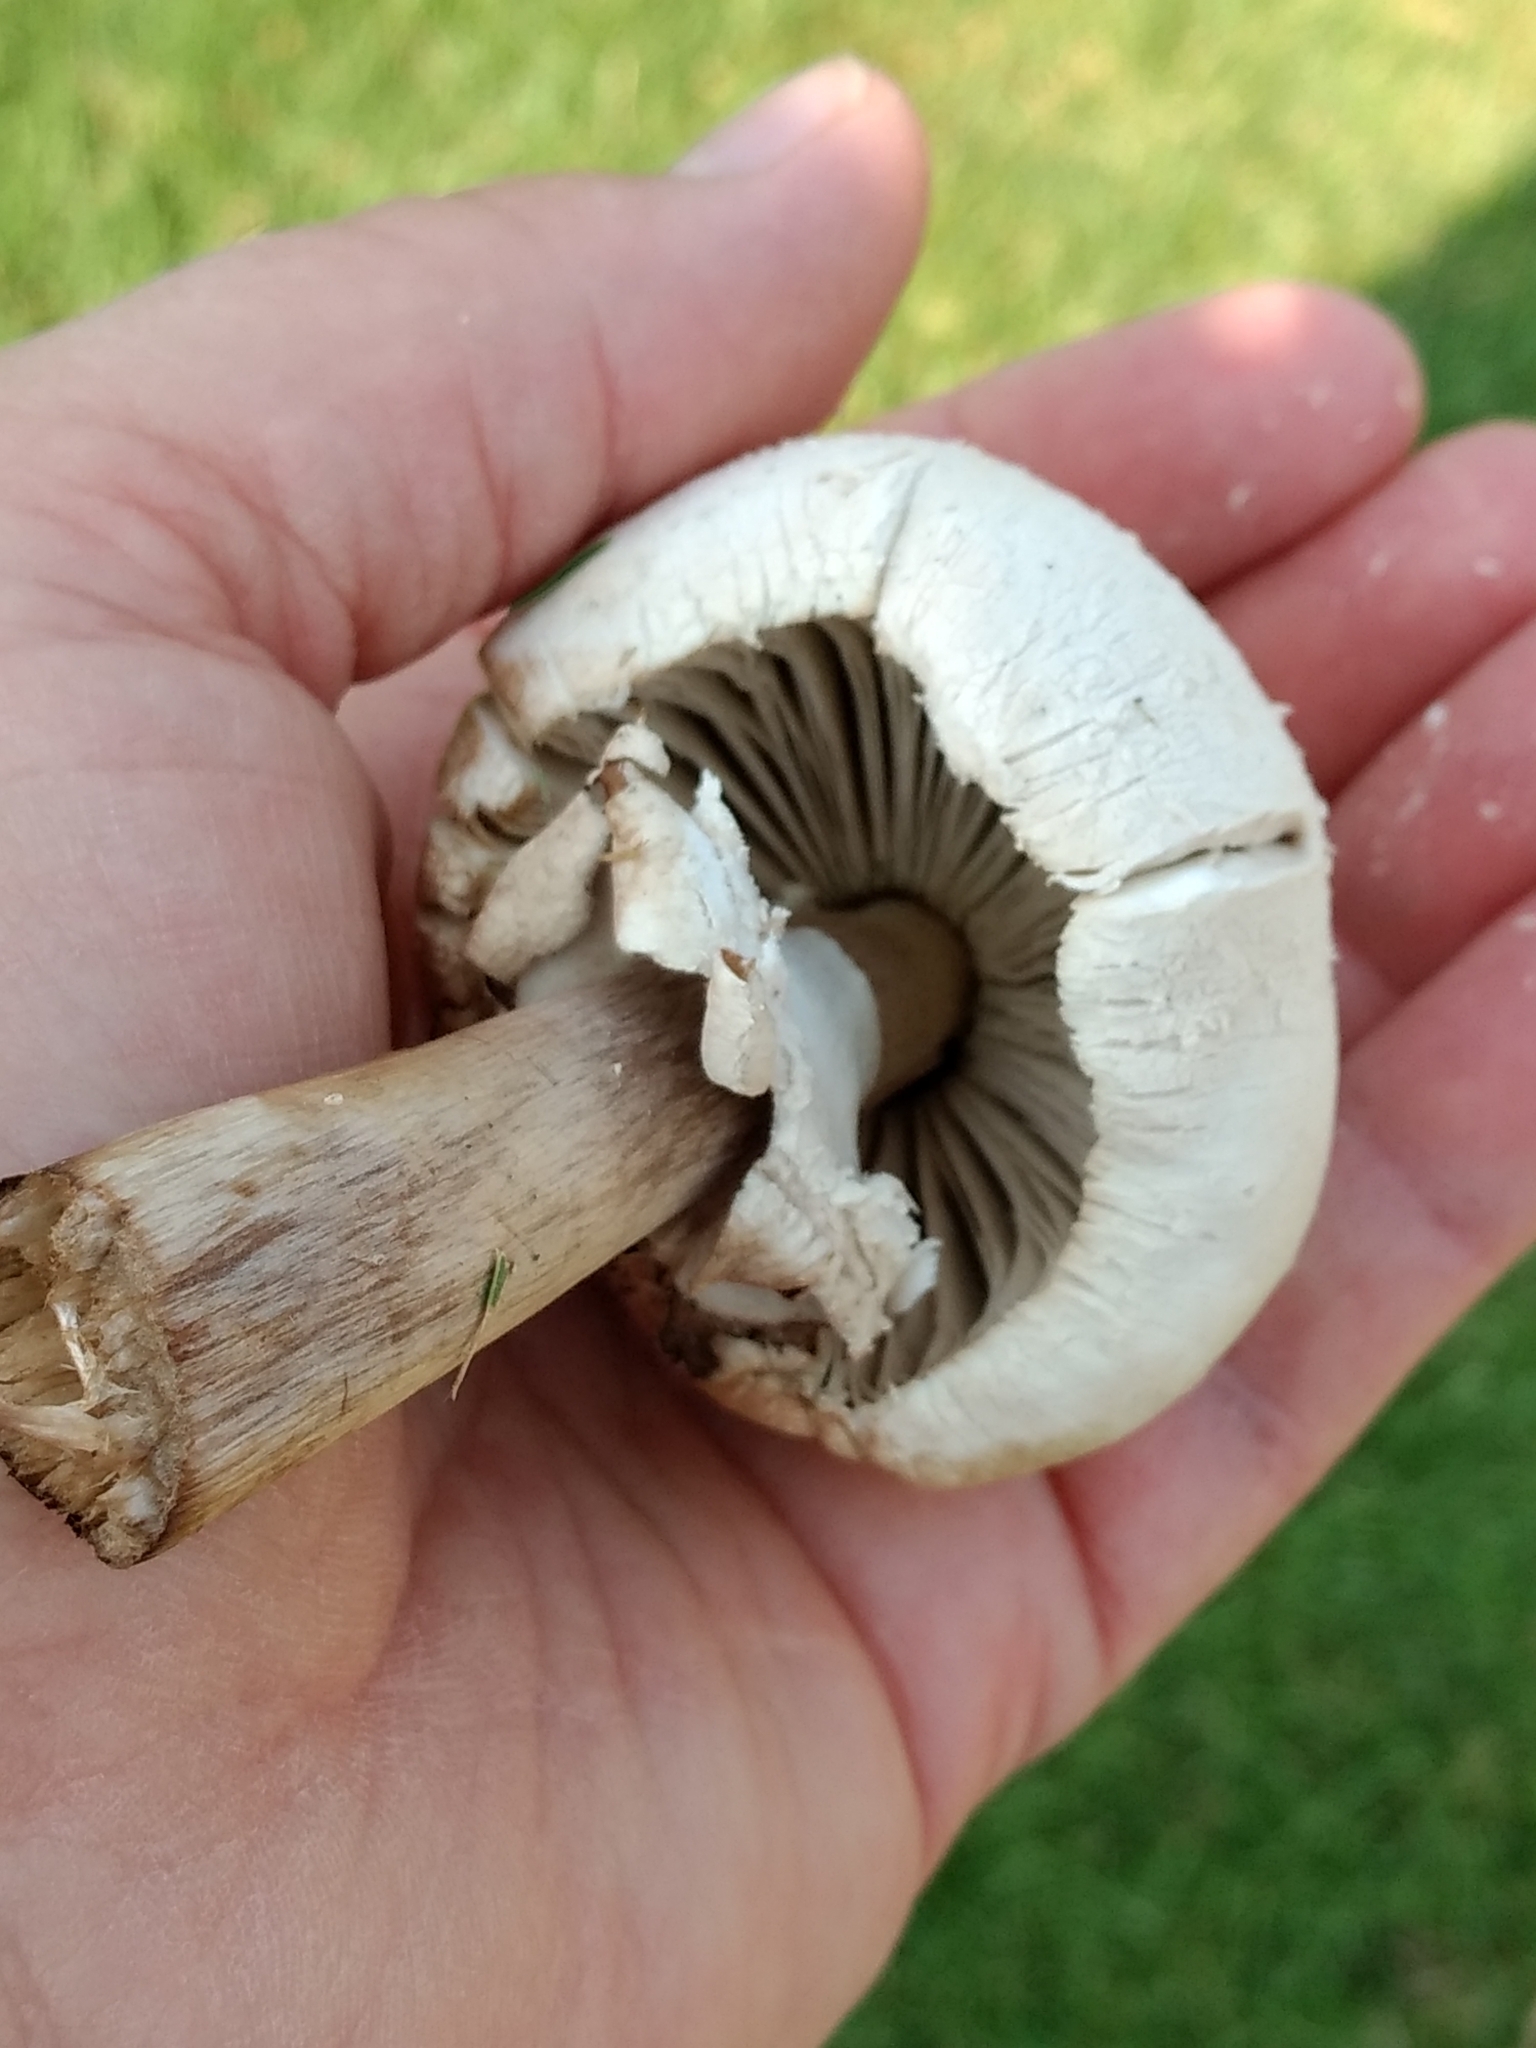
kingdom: Fungi
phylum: Basidiomycota
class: Agaricomycetes
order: Agaricales
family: Agaricaceae
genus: Chlorophyllum
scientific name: Chlorophyllum molybdites
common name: False parasol
